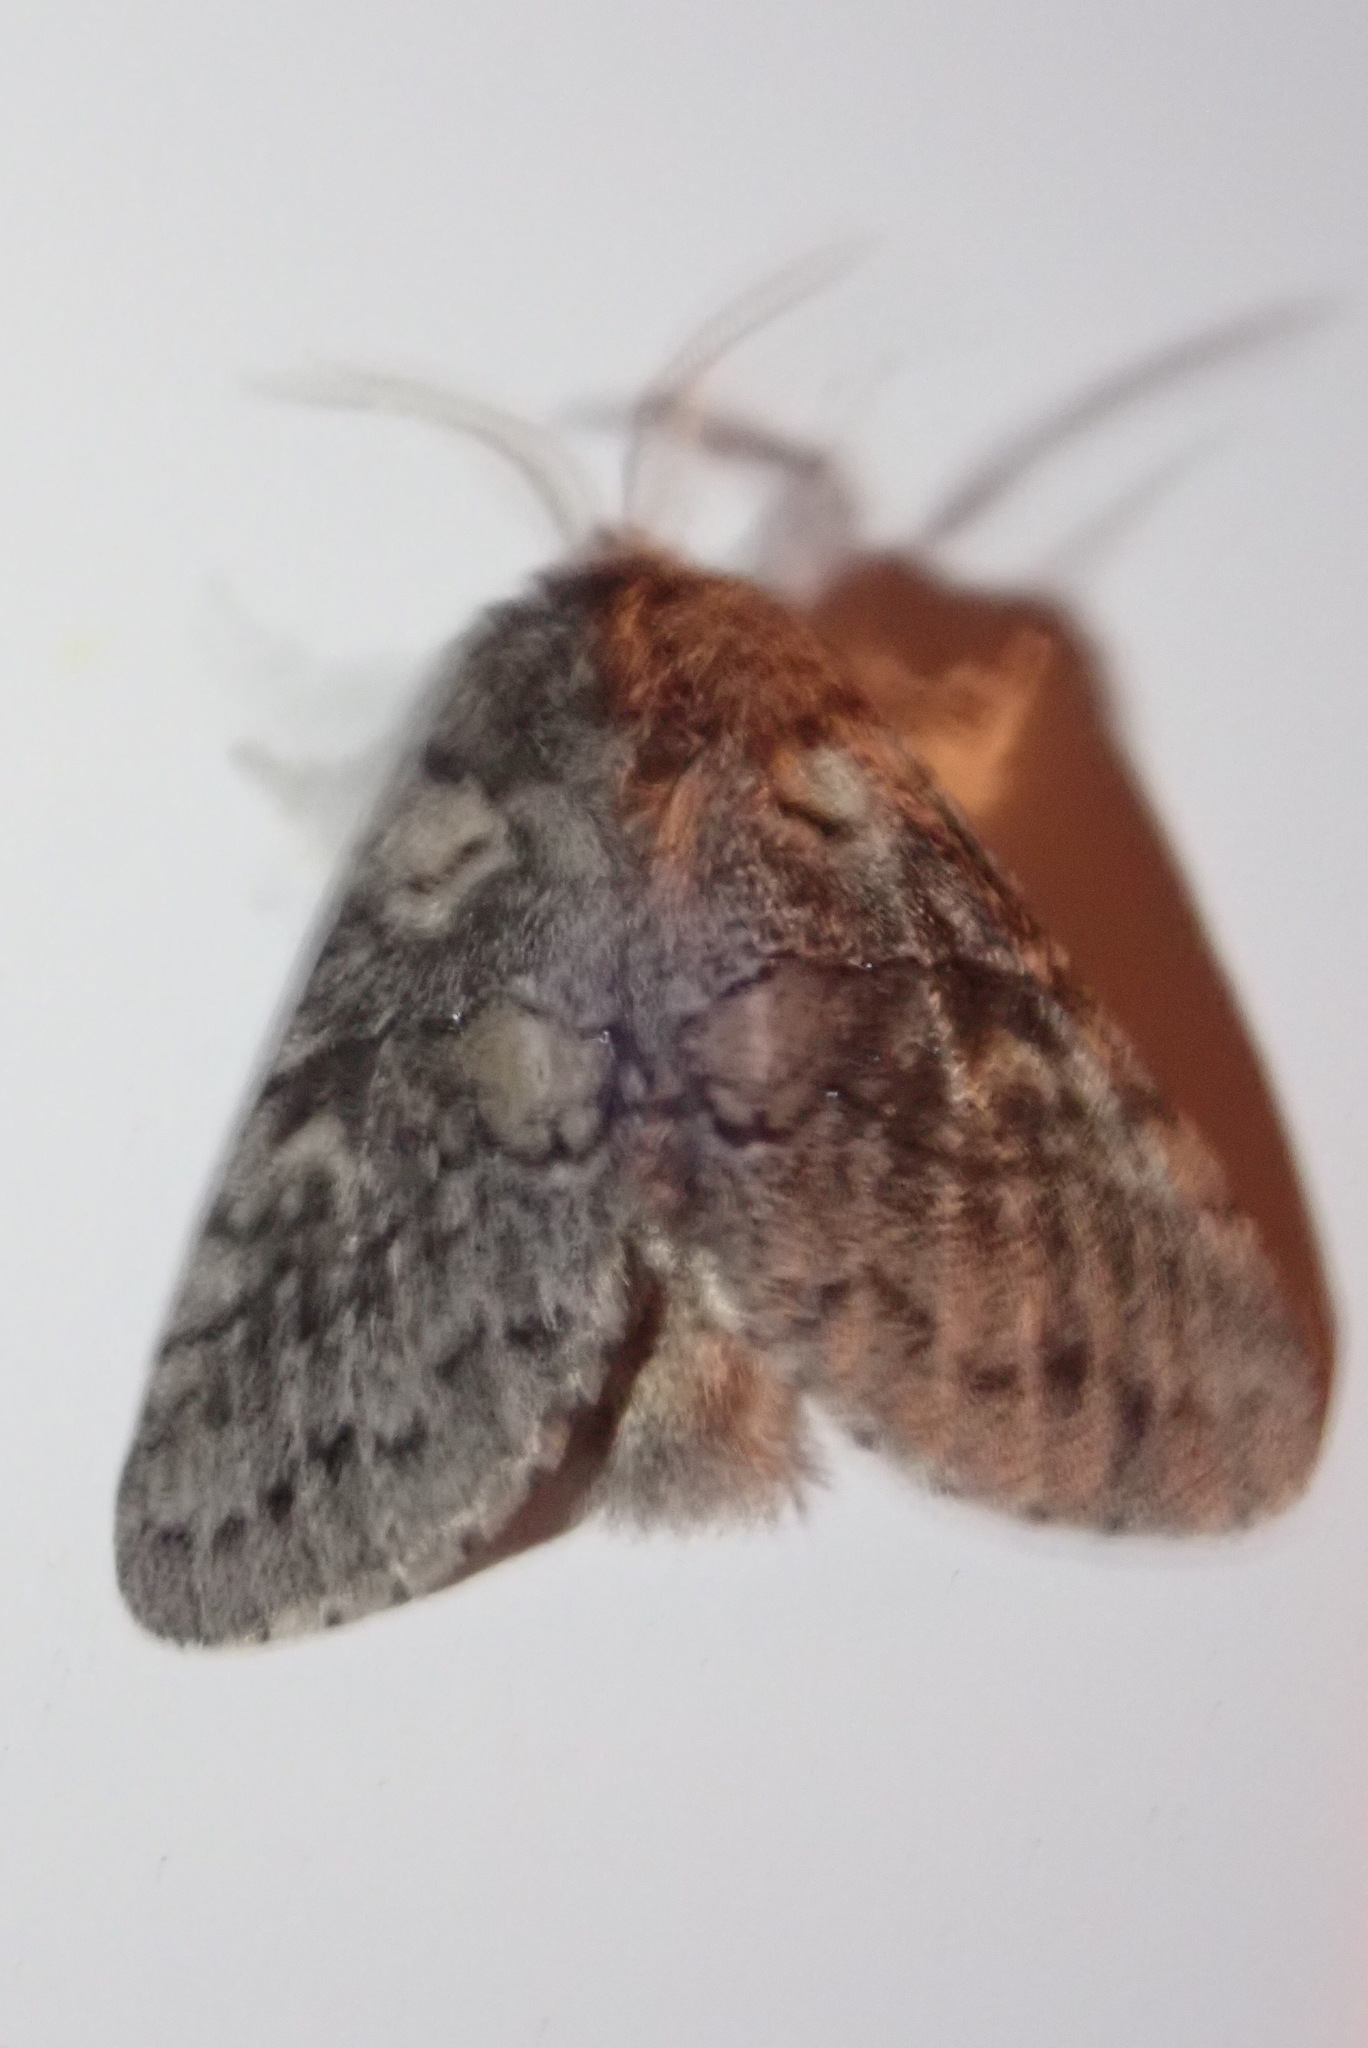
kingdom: Animalia
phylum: Arthropoda
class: Insecta
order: Lepidoptera
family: Notodontidae
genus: Gluphisia
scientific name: Gluphisia septentrionis
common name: Common gluphisia
